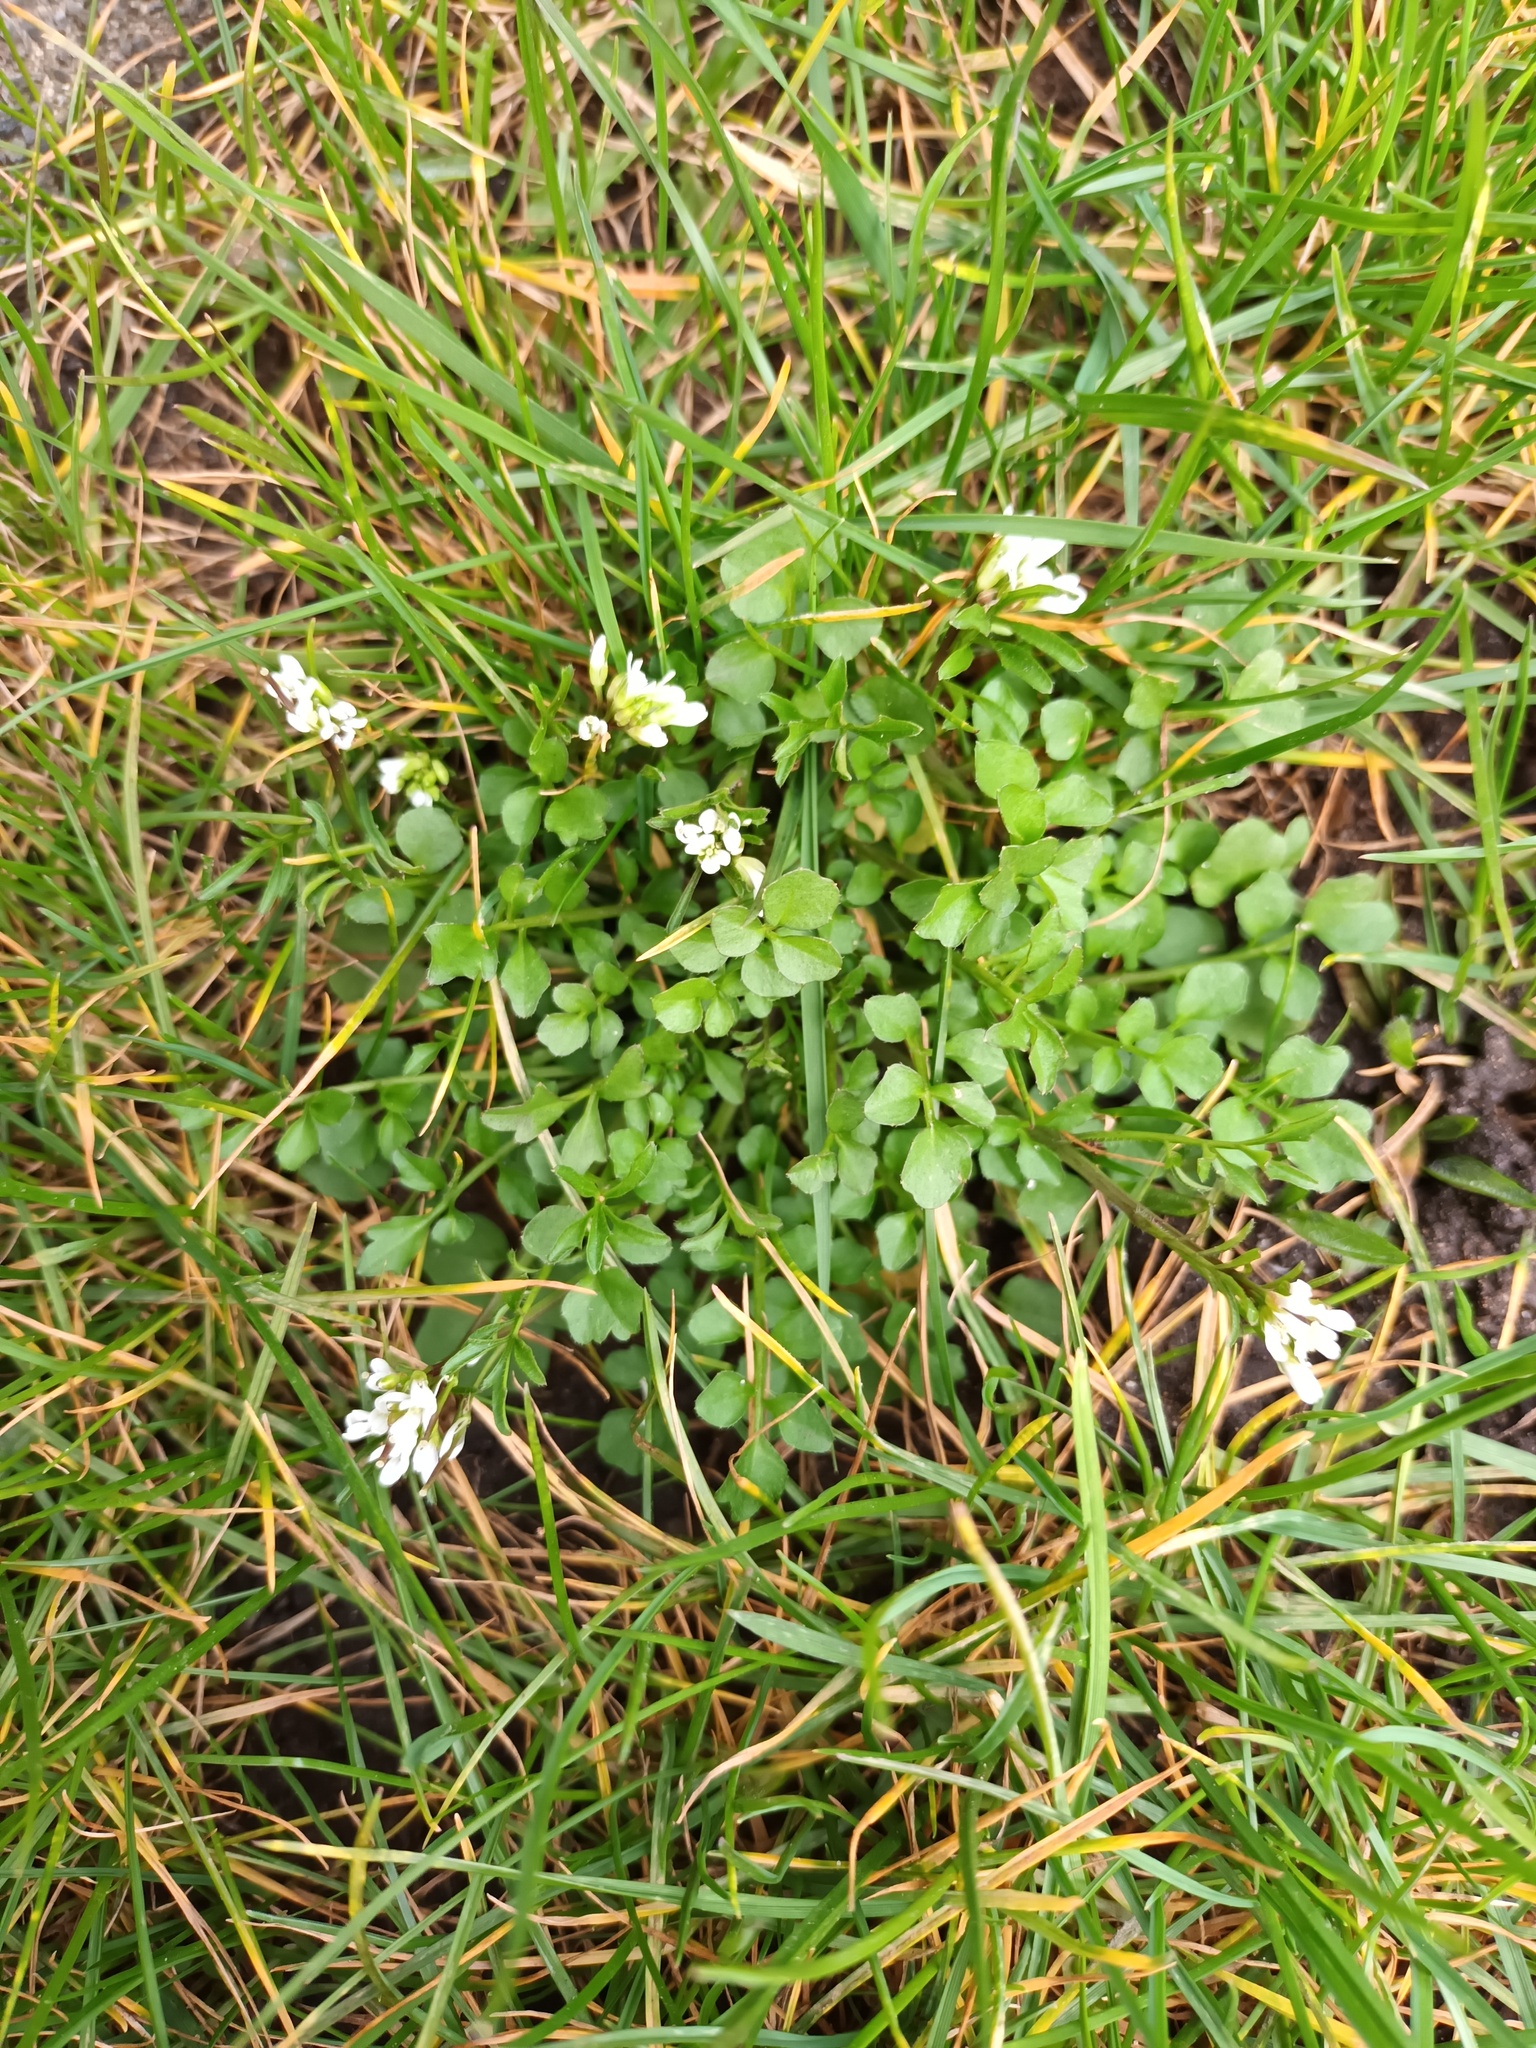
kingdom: Plantae
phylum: Tracheophyta
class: Magnoliopsida
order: Brassicales
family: Brassicaceae
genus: Cardamine
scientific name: Cardamine hirsuta
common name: Hairy bittercress
